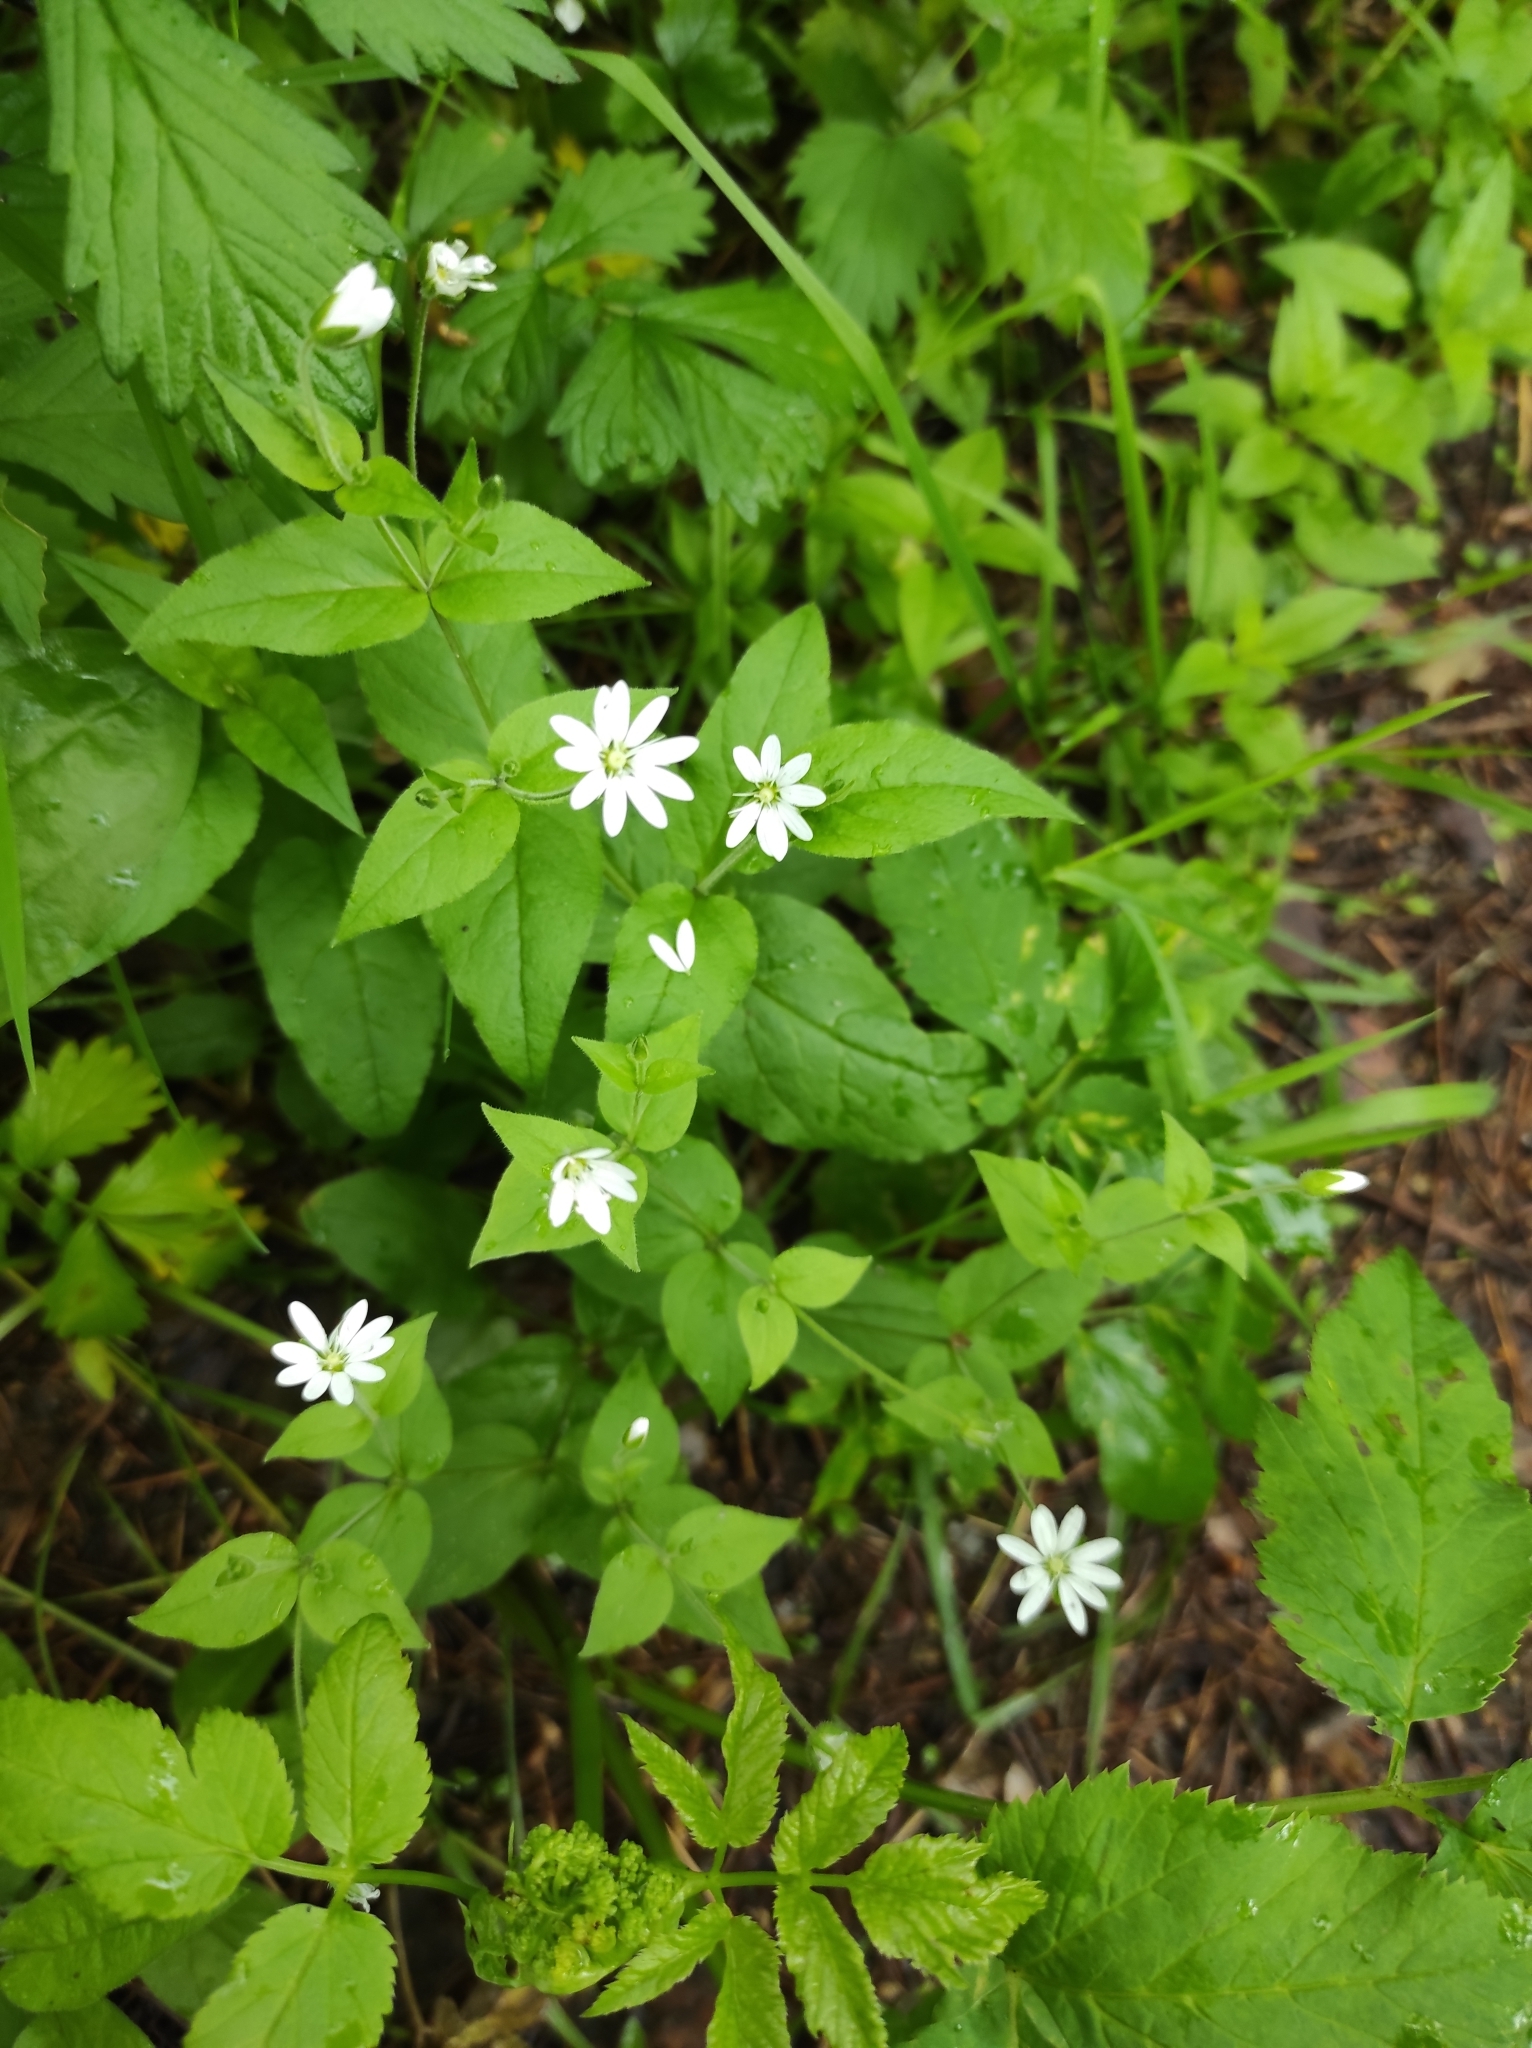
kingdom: Plantae
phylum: Tracheophyta
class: Magnoliopsida
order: Caryophyllales
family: Caryophyllaceae
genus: Stellaria
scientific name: Stellaria bungeana
